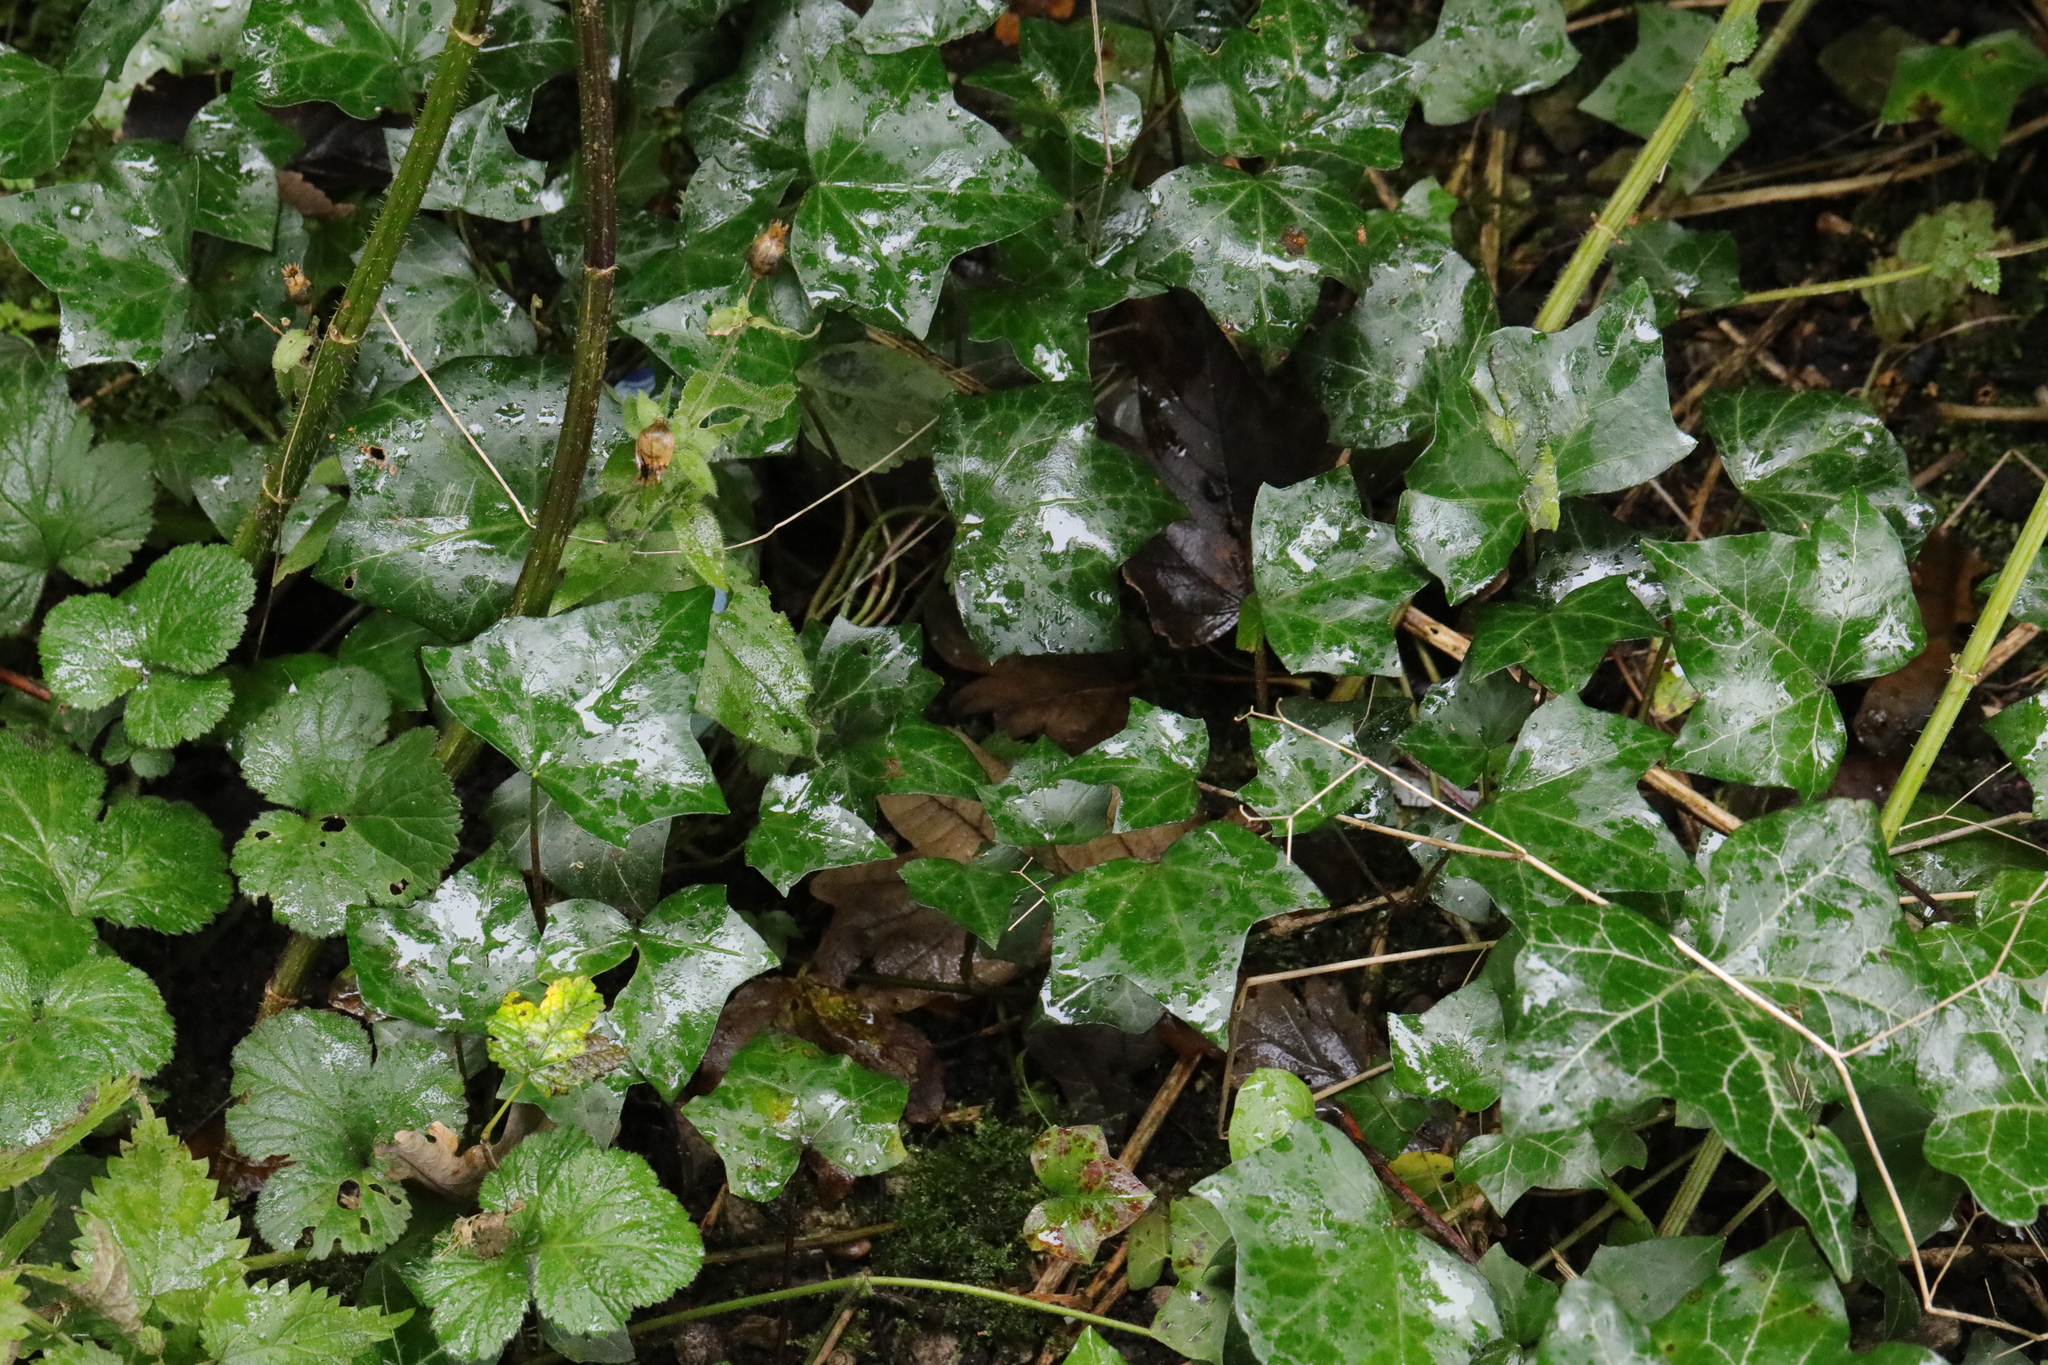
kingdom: Plantae
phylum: Tracheophyta
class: Magnoliopsida
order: Apiales
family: Araliaceae
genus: Hedera
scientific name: Hedera helix
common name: Ivy
